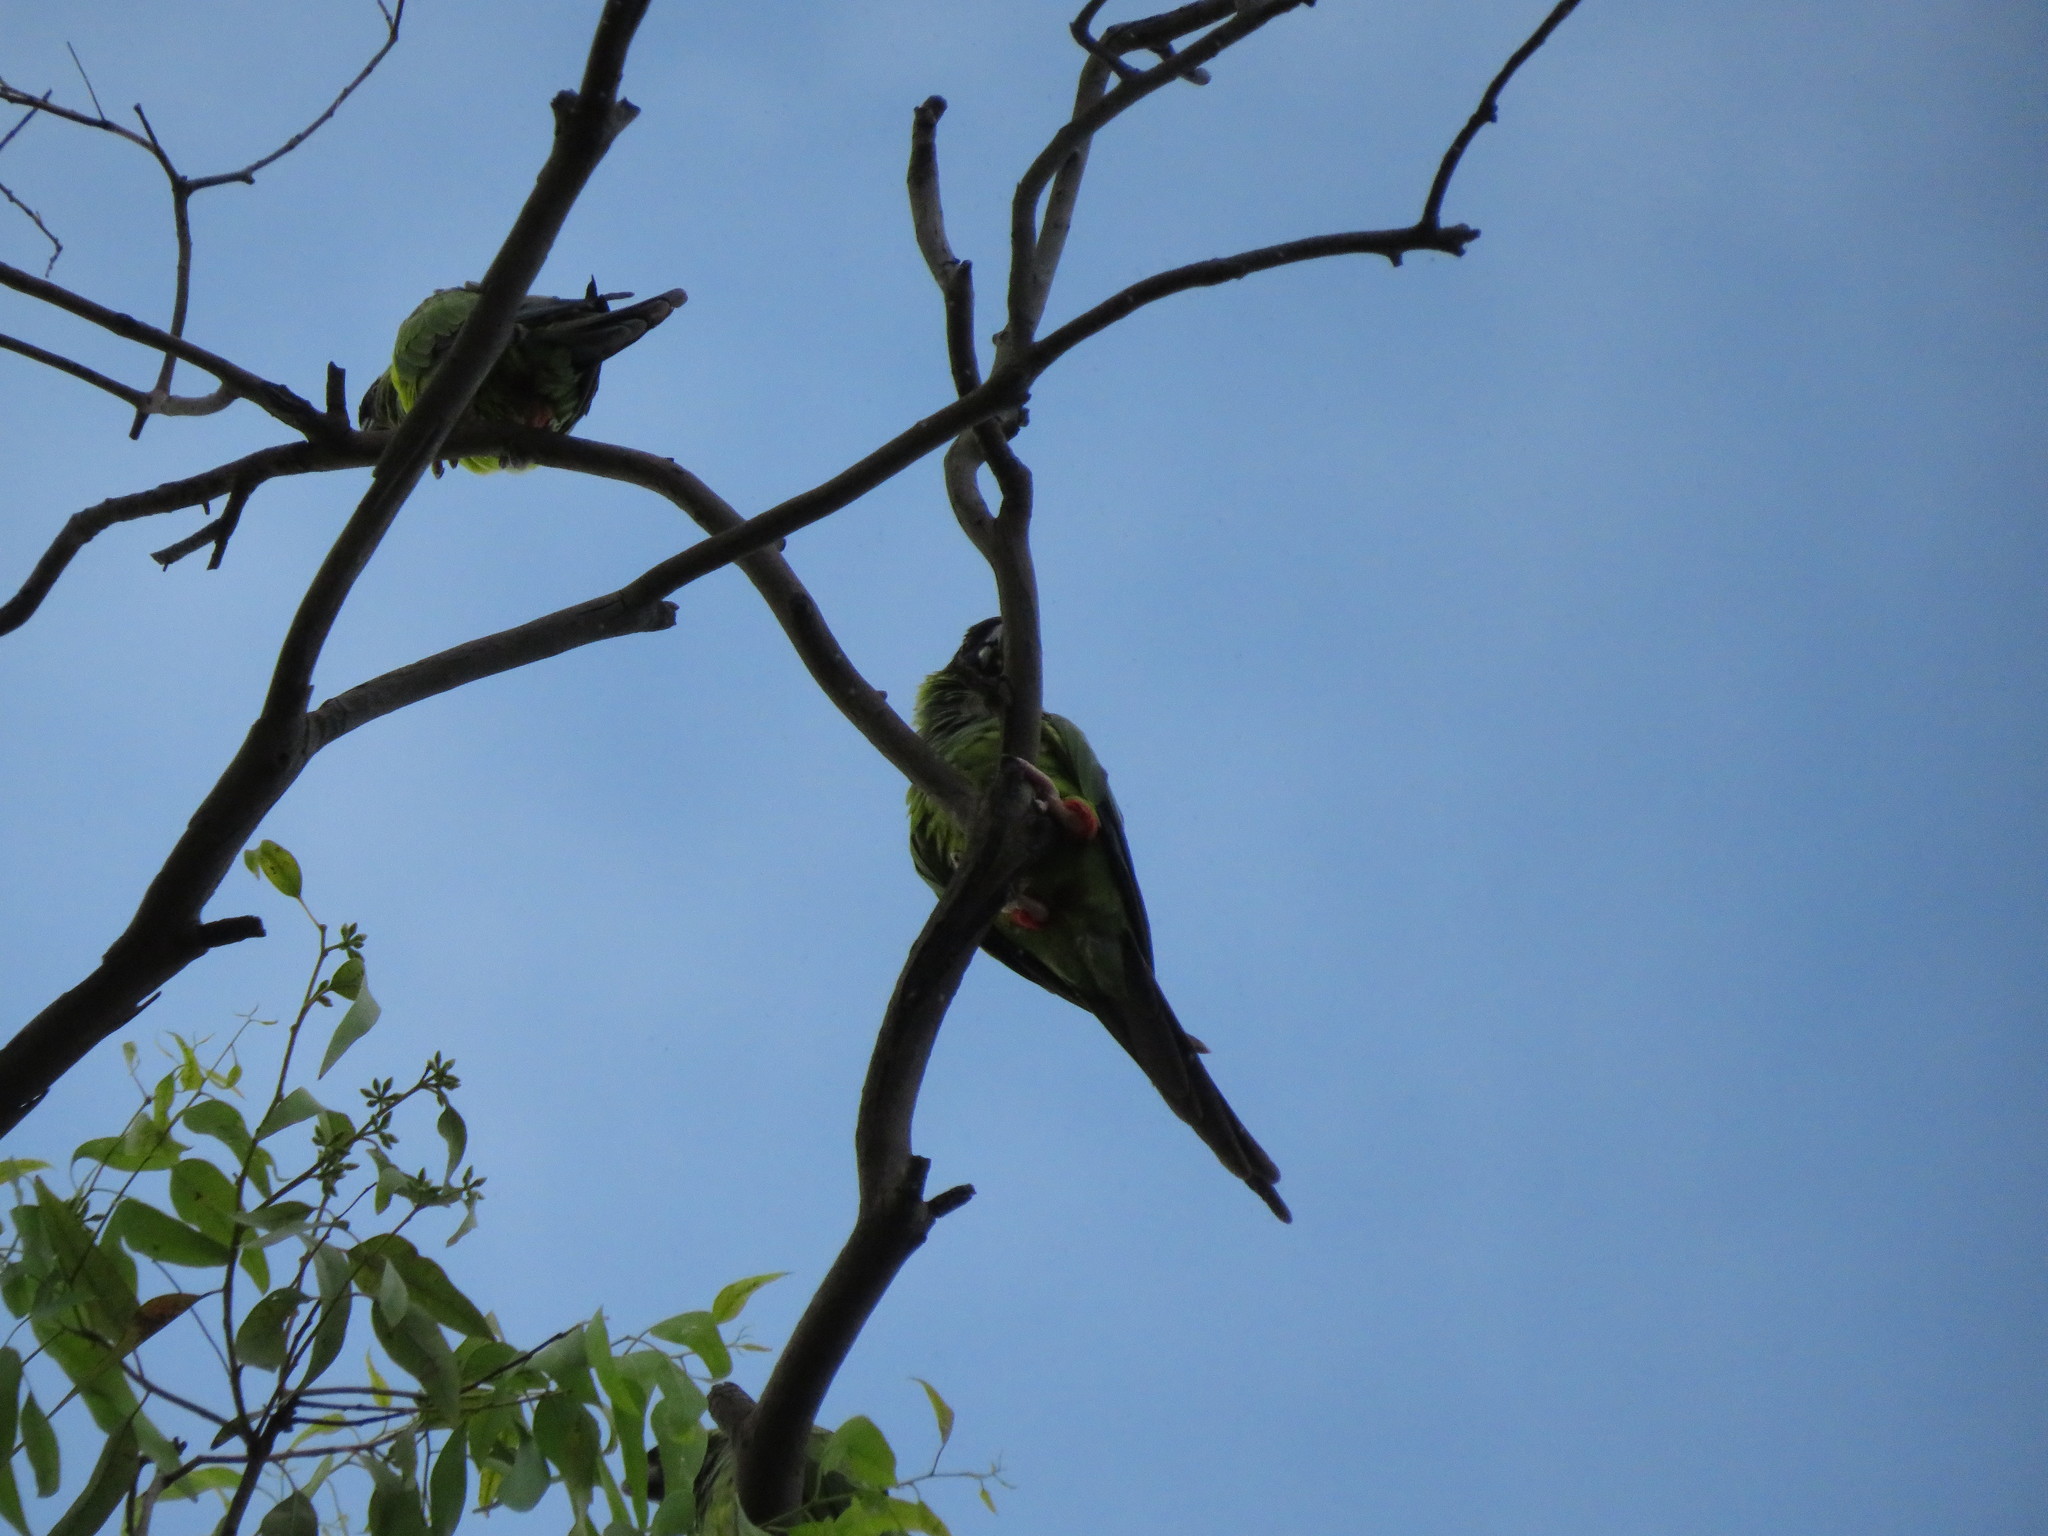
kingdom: Animalia
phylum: Chordata
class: Aves
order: Psittaciformes
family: Psittacidae
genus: Nandayus
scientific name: Nandayus nenday
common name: Nanday parakeet
